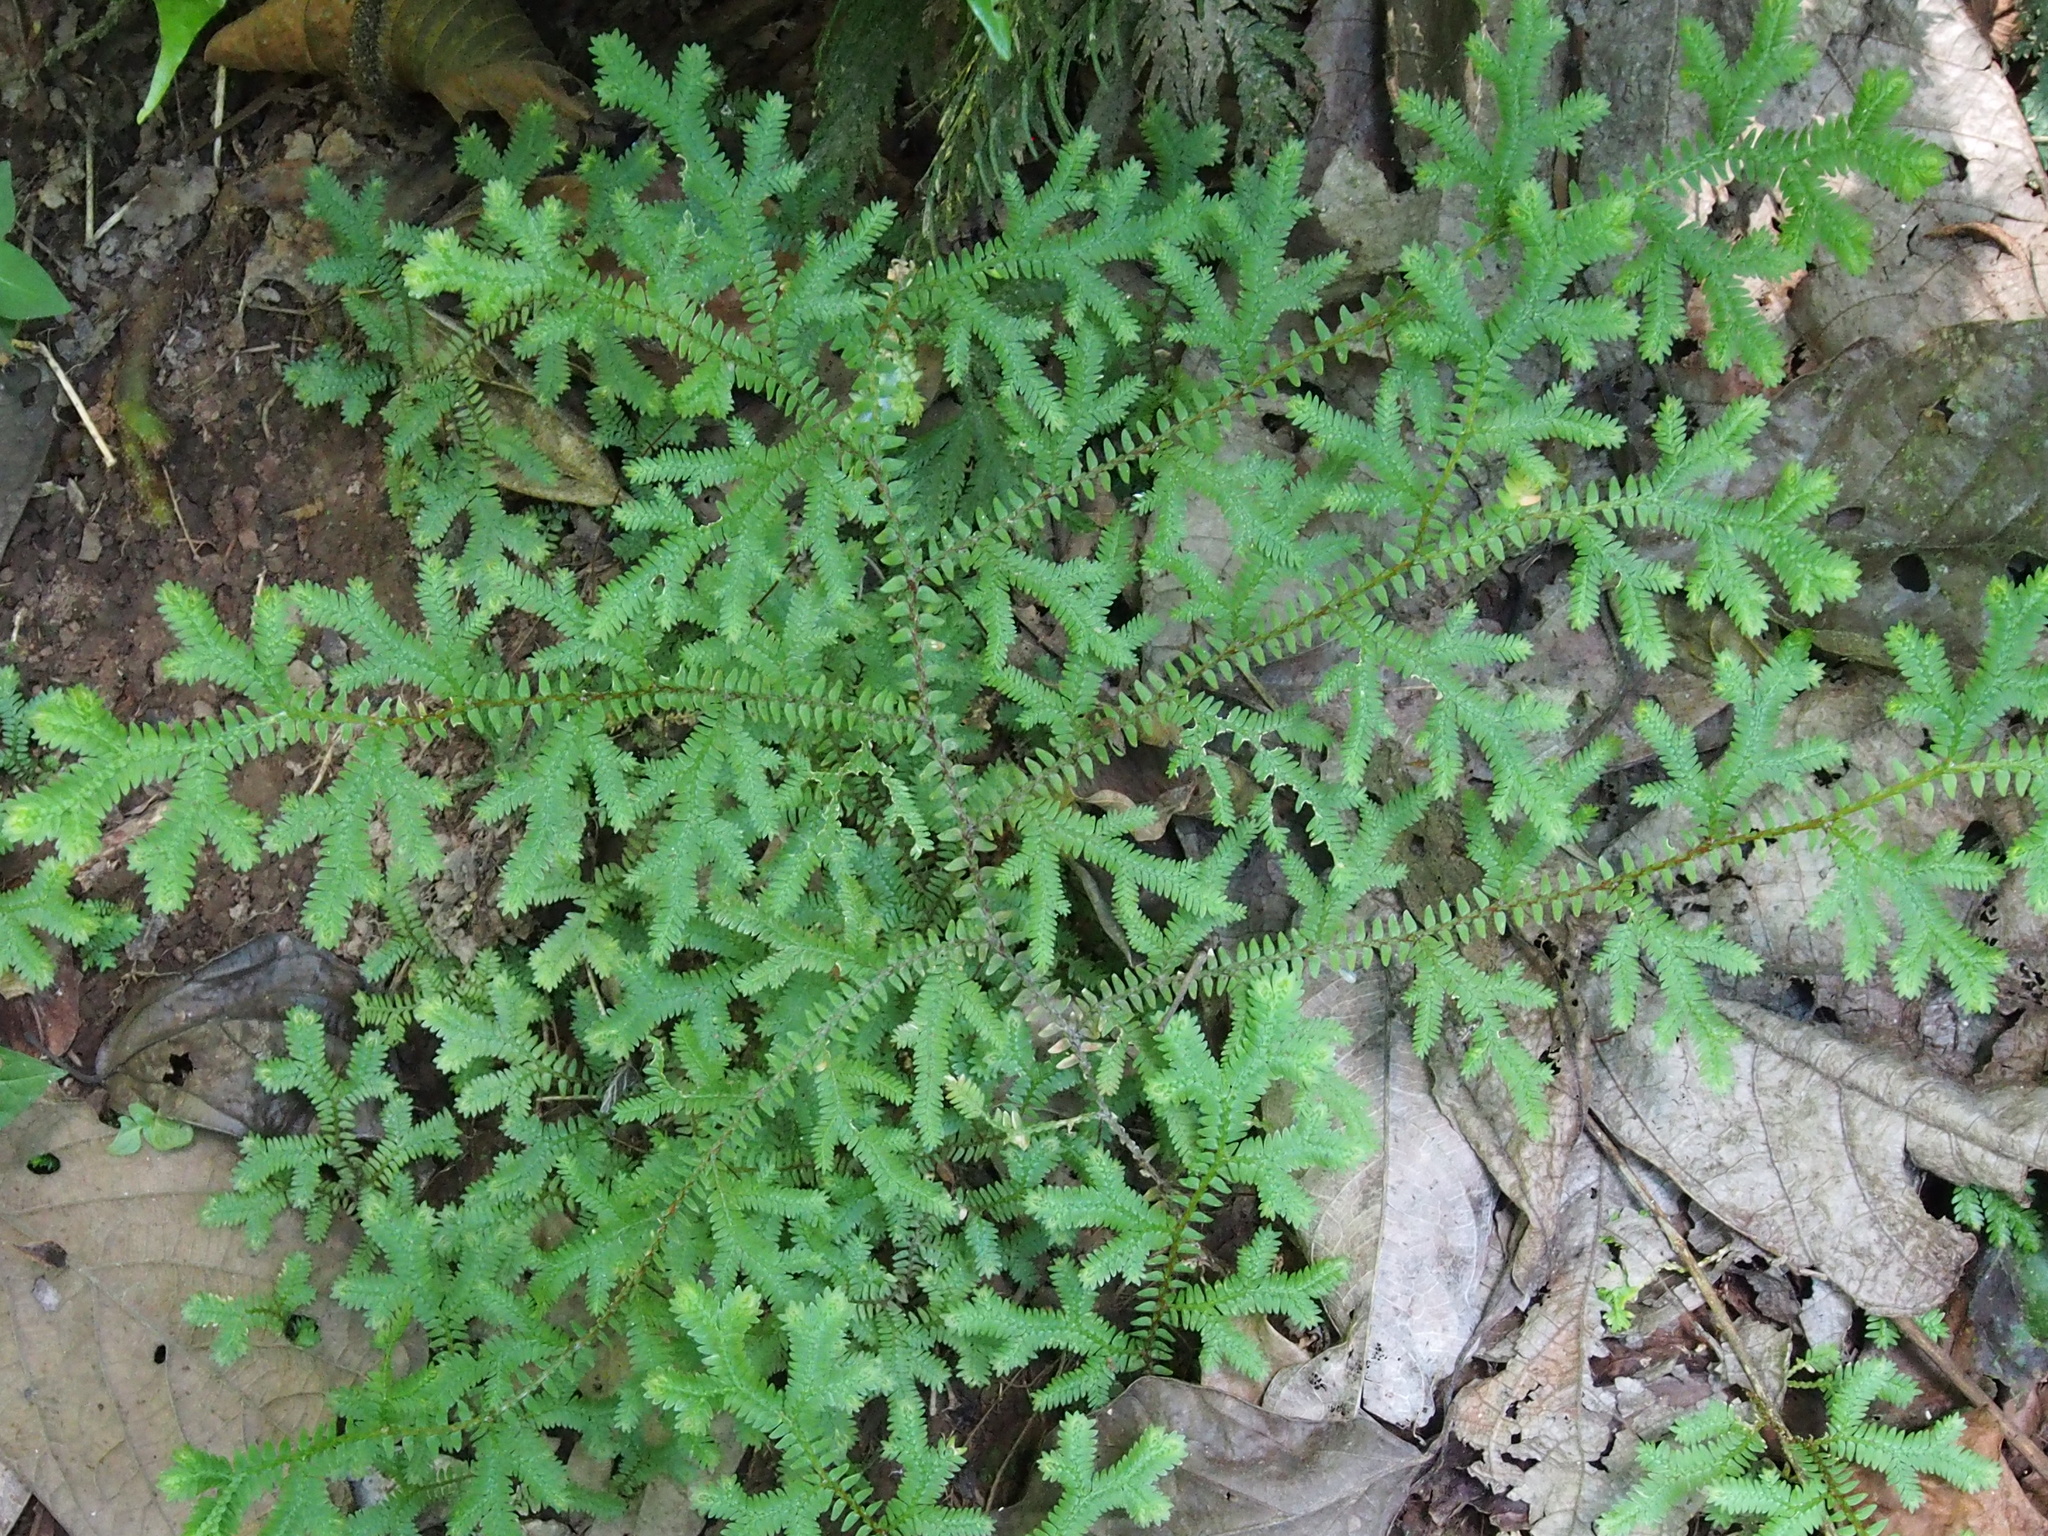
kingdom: Plantae
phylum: Tracheophyta
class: Lycopodiopsida
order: Selaginellales
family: Selaginellaceae
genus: Selaginella
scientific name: Selaginella eurynota
